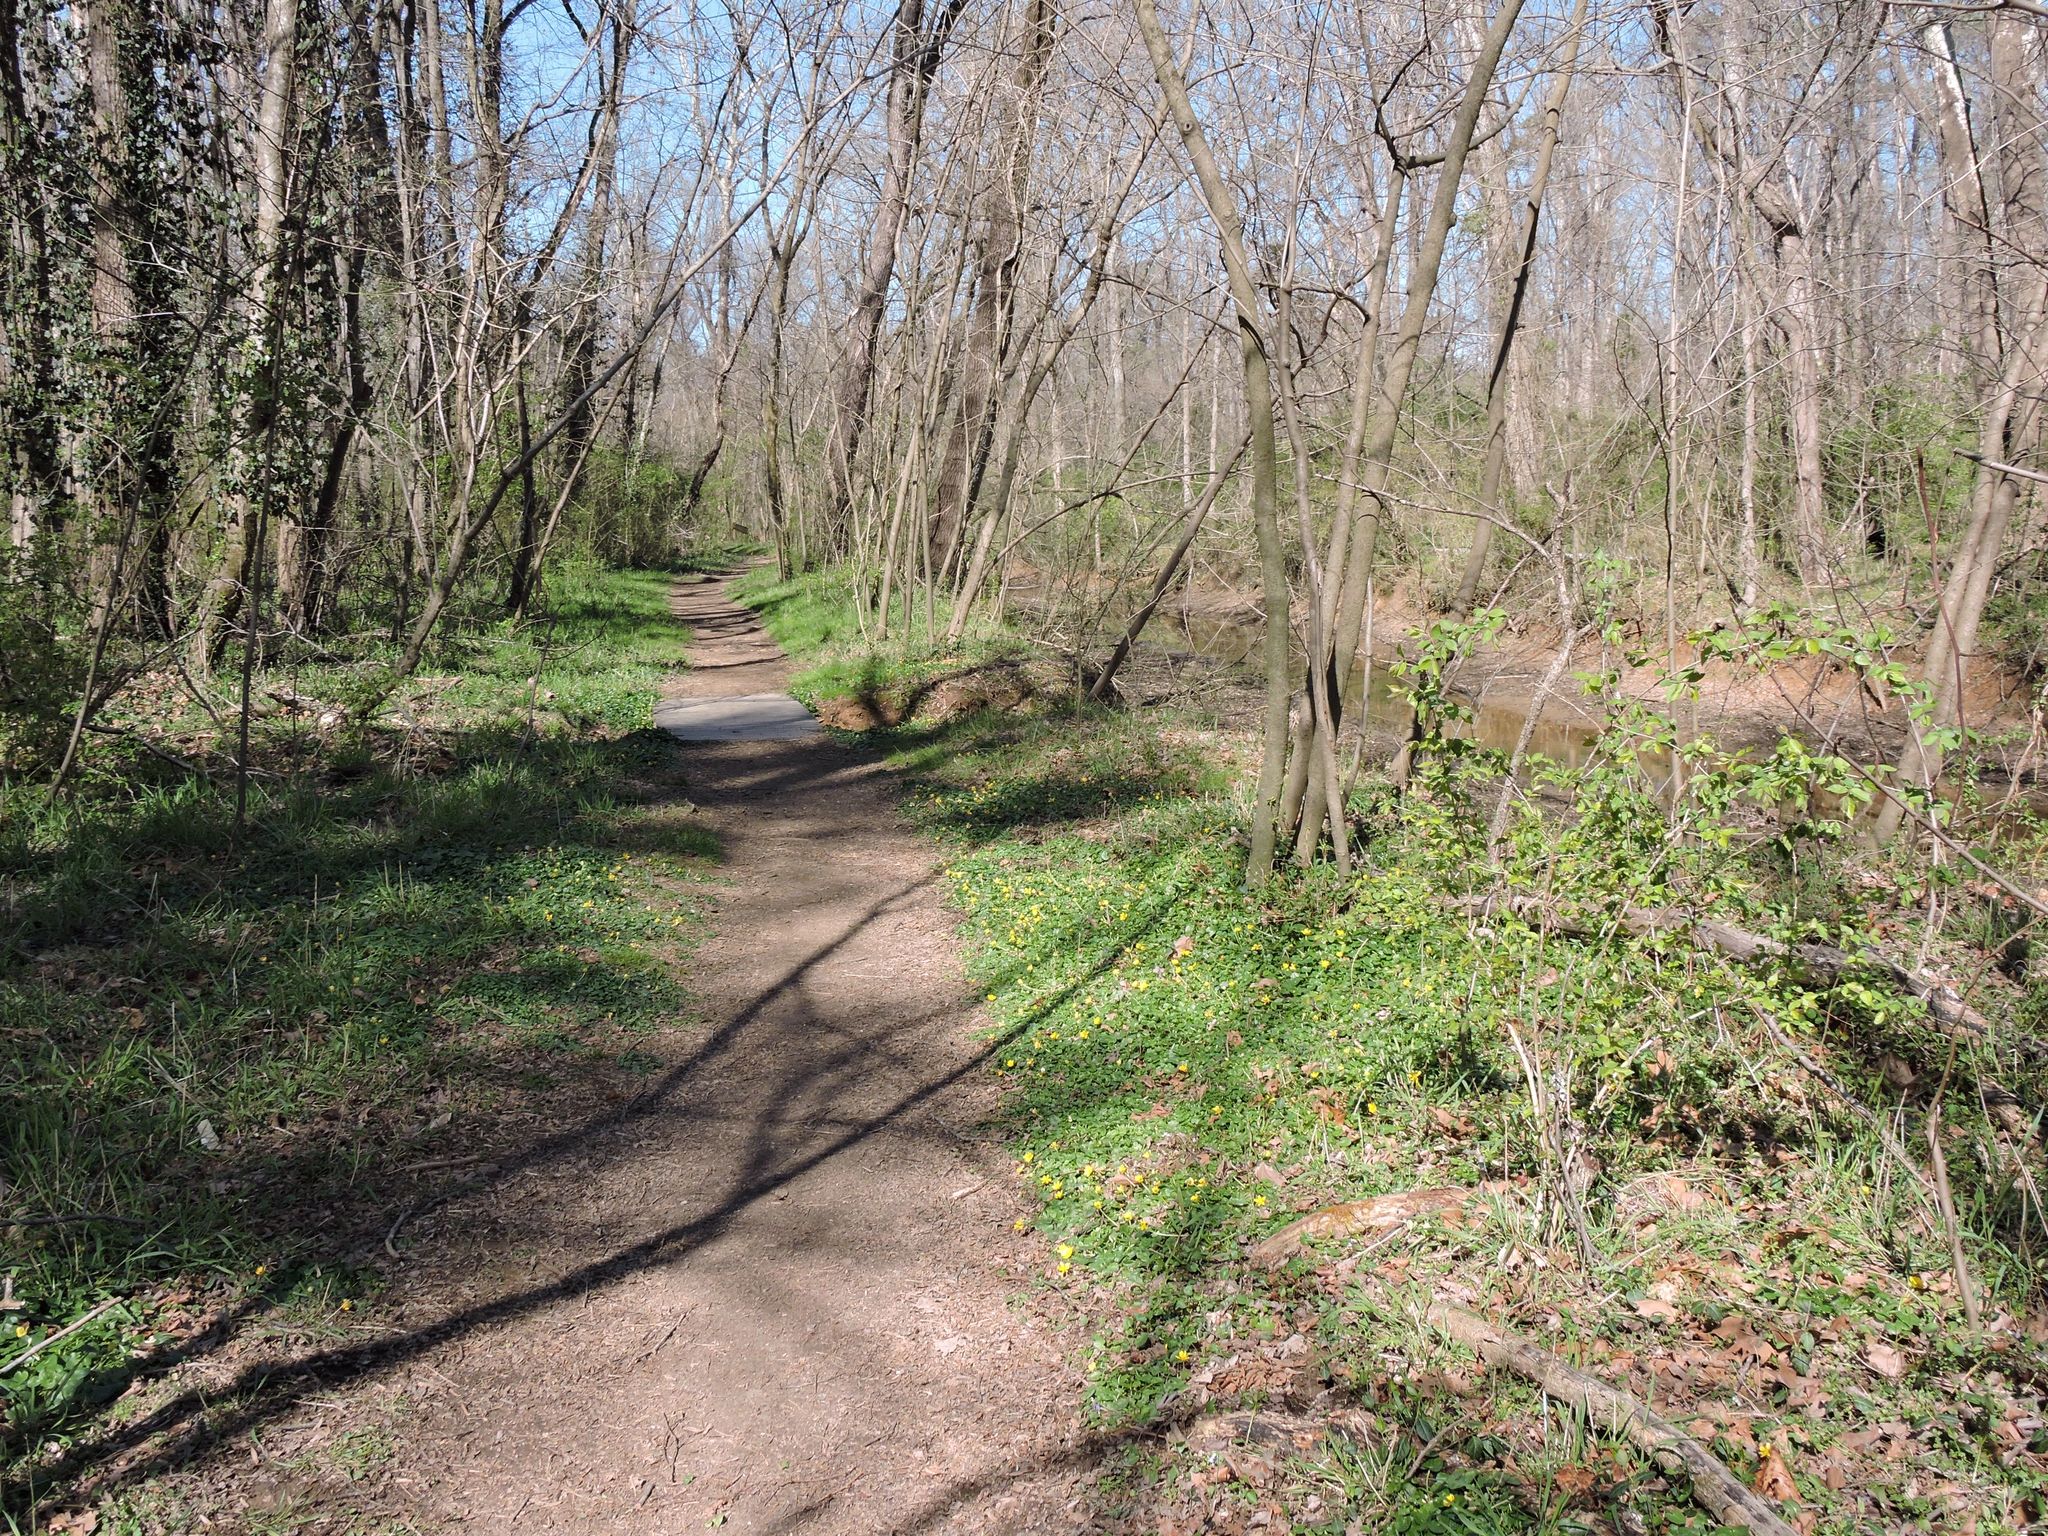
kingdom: Plantae
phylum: Tracheophyta
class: Magnoliopsida
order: Ranunculales
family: Ranunculaceae
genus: Ficaria
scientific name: Ficaria verna
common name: Lesser celandine
